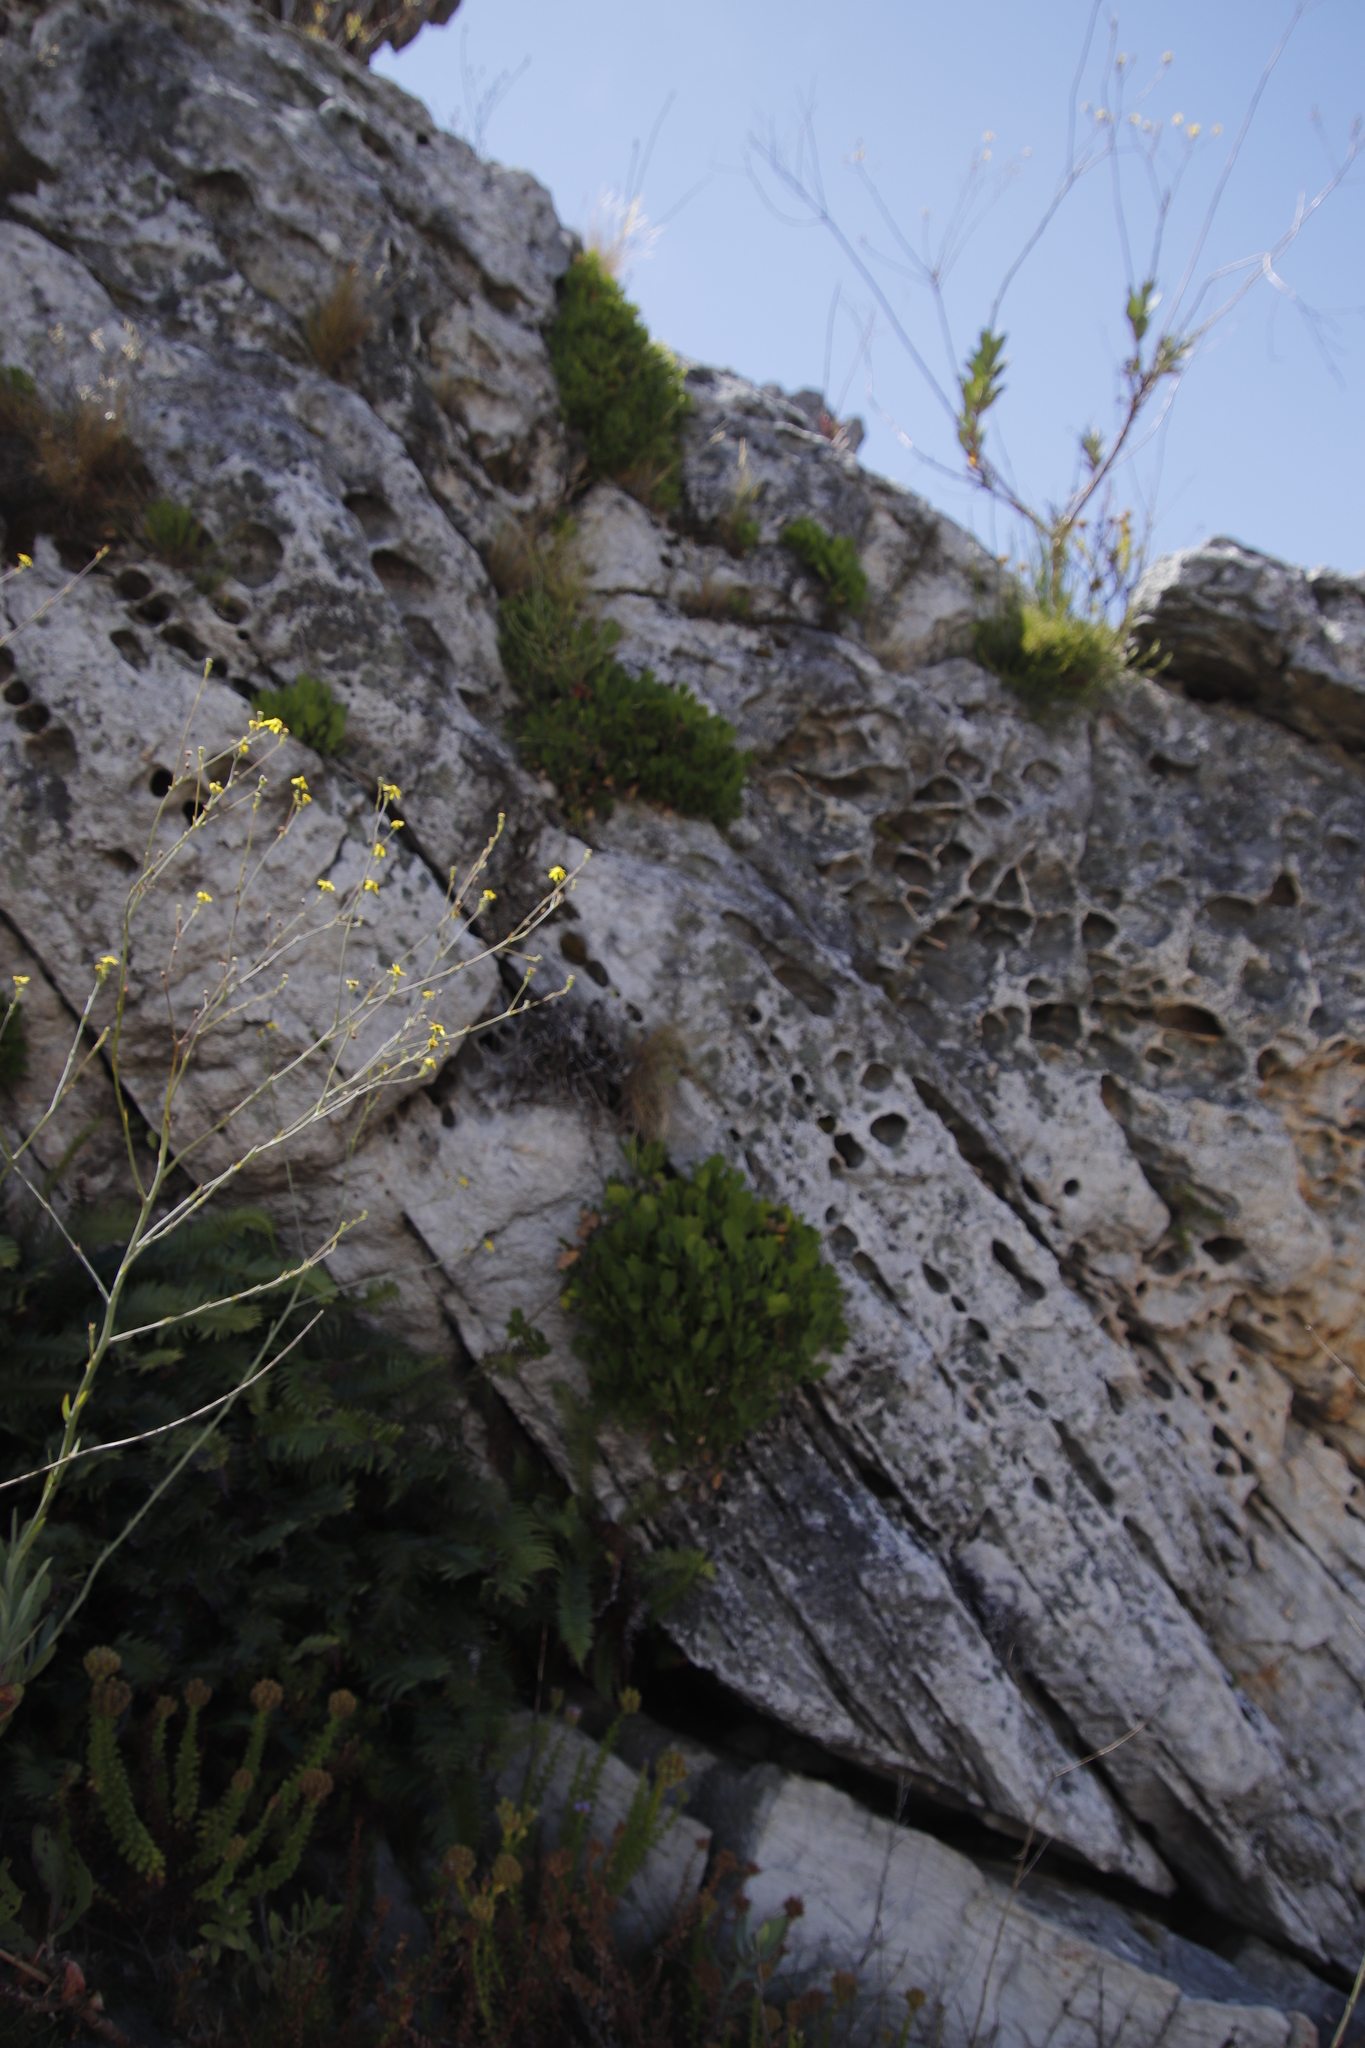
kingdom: Plantae
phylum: Tracheophyta
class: Magnoliopsida
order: Apiales
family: Apiaceae
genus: Centella
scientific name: Centella triloba
